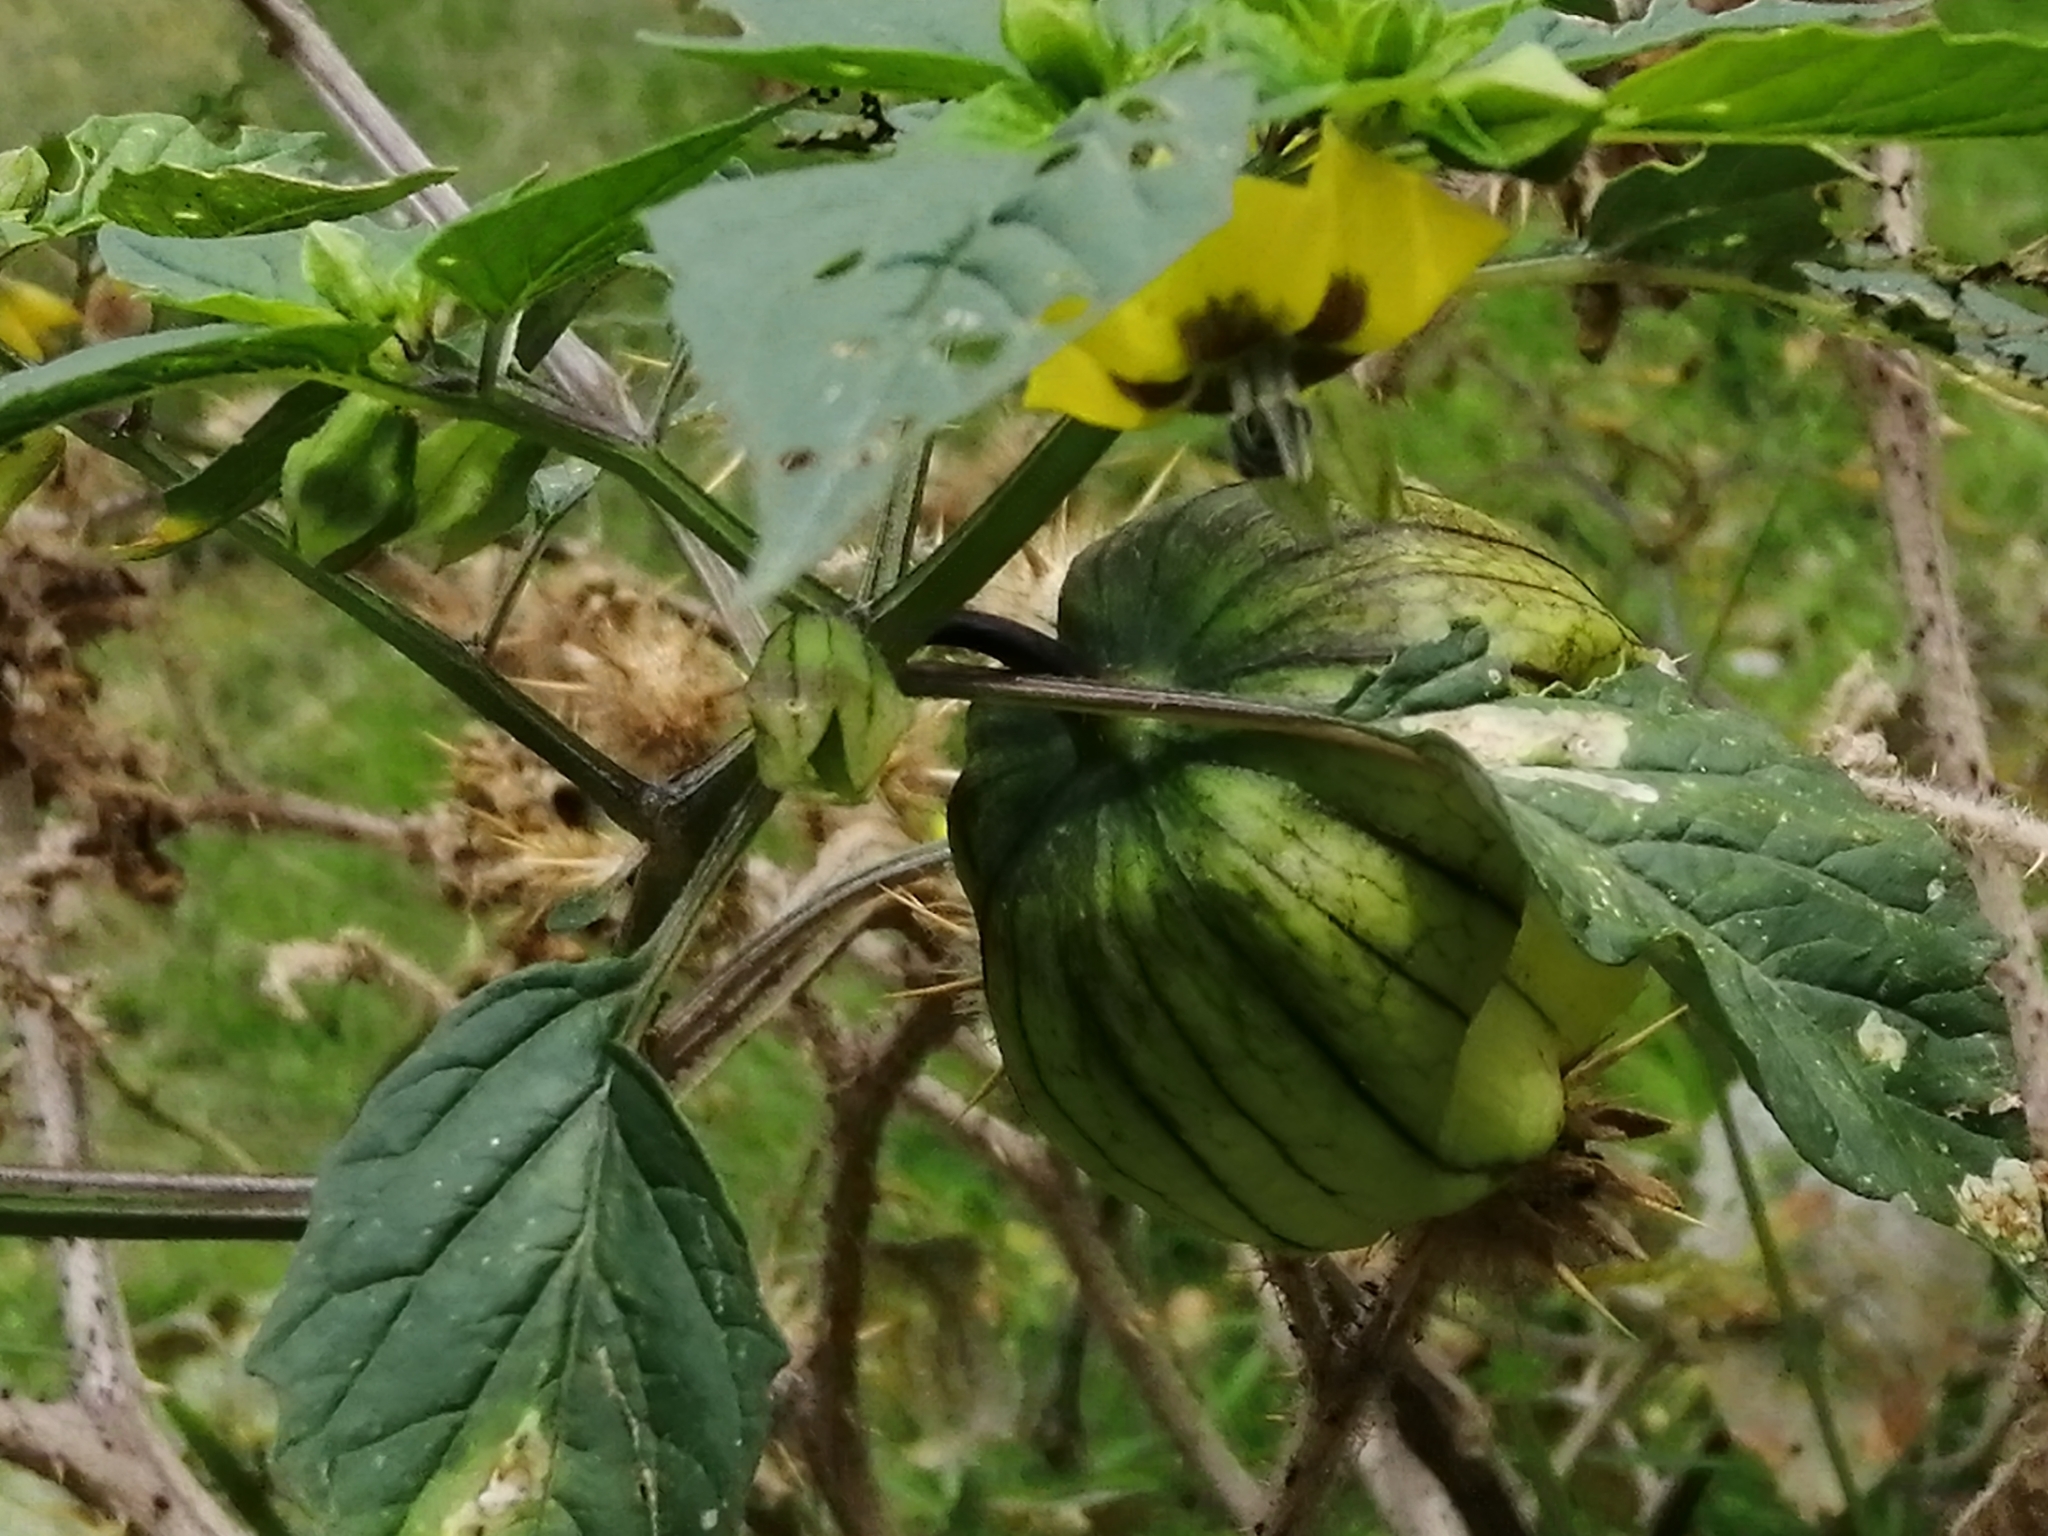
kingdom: Plantae
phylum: Tracheophyta
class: Magnoliopsida
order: Solanales
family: Solanaceae
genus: Physalis
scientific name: Physalis philadelphica
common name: Husk-tomato
